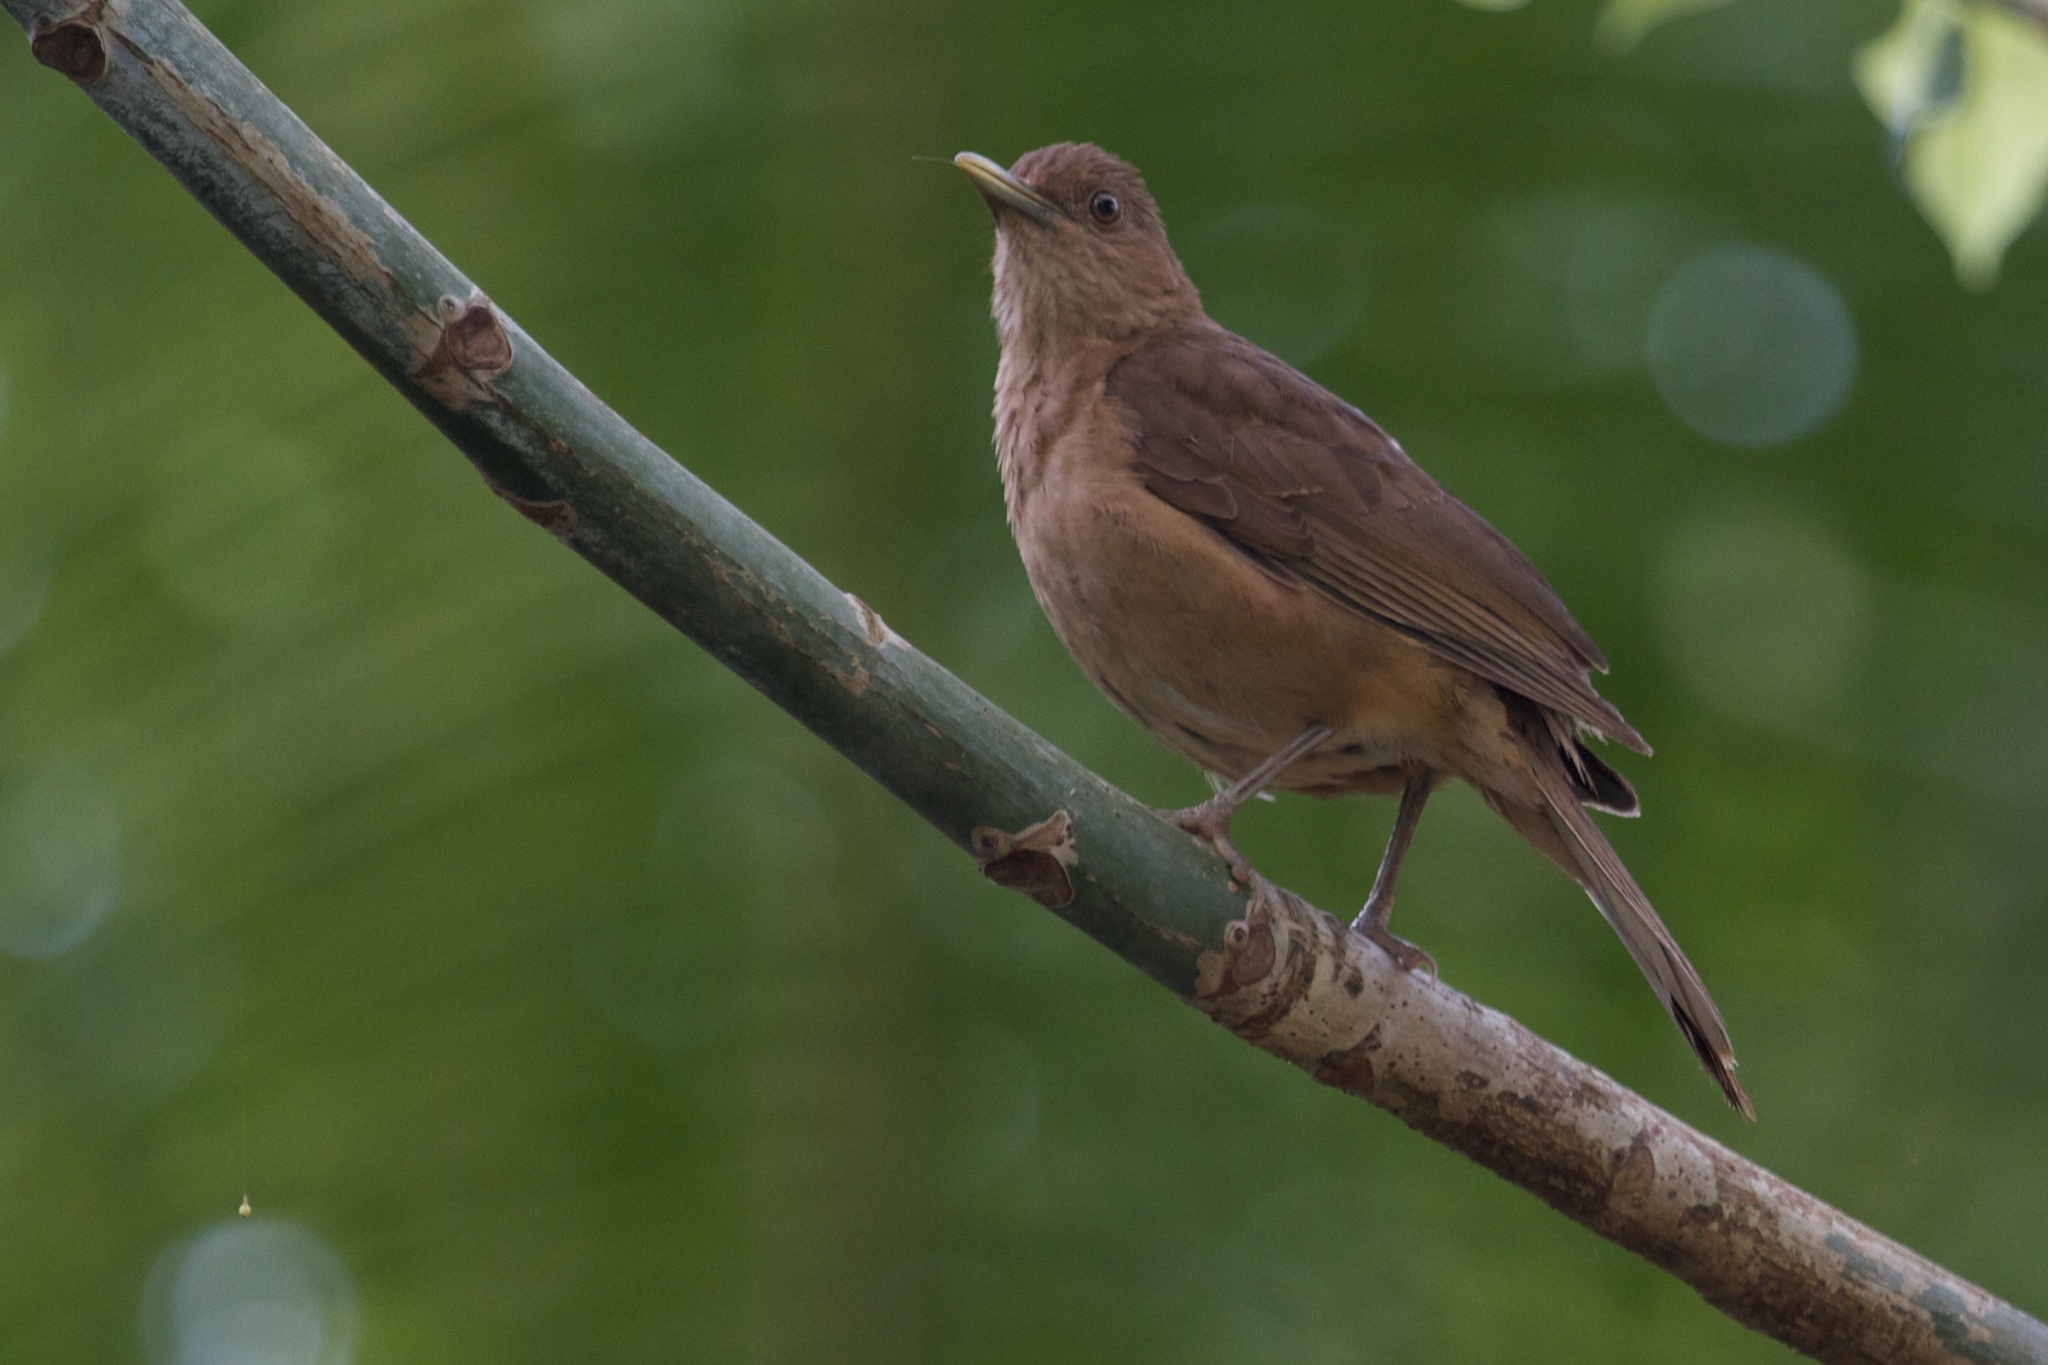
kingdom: Animalia
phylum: Chordata
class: Aves
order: Passeriformes
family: Turdidae
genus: Turdus
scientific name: Turdus grayi
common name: Clay-colored thrush
